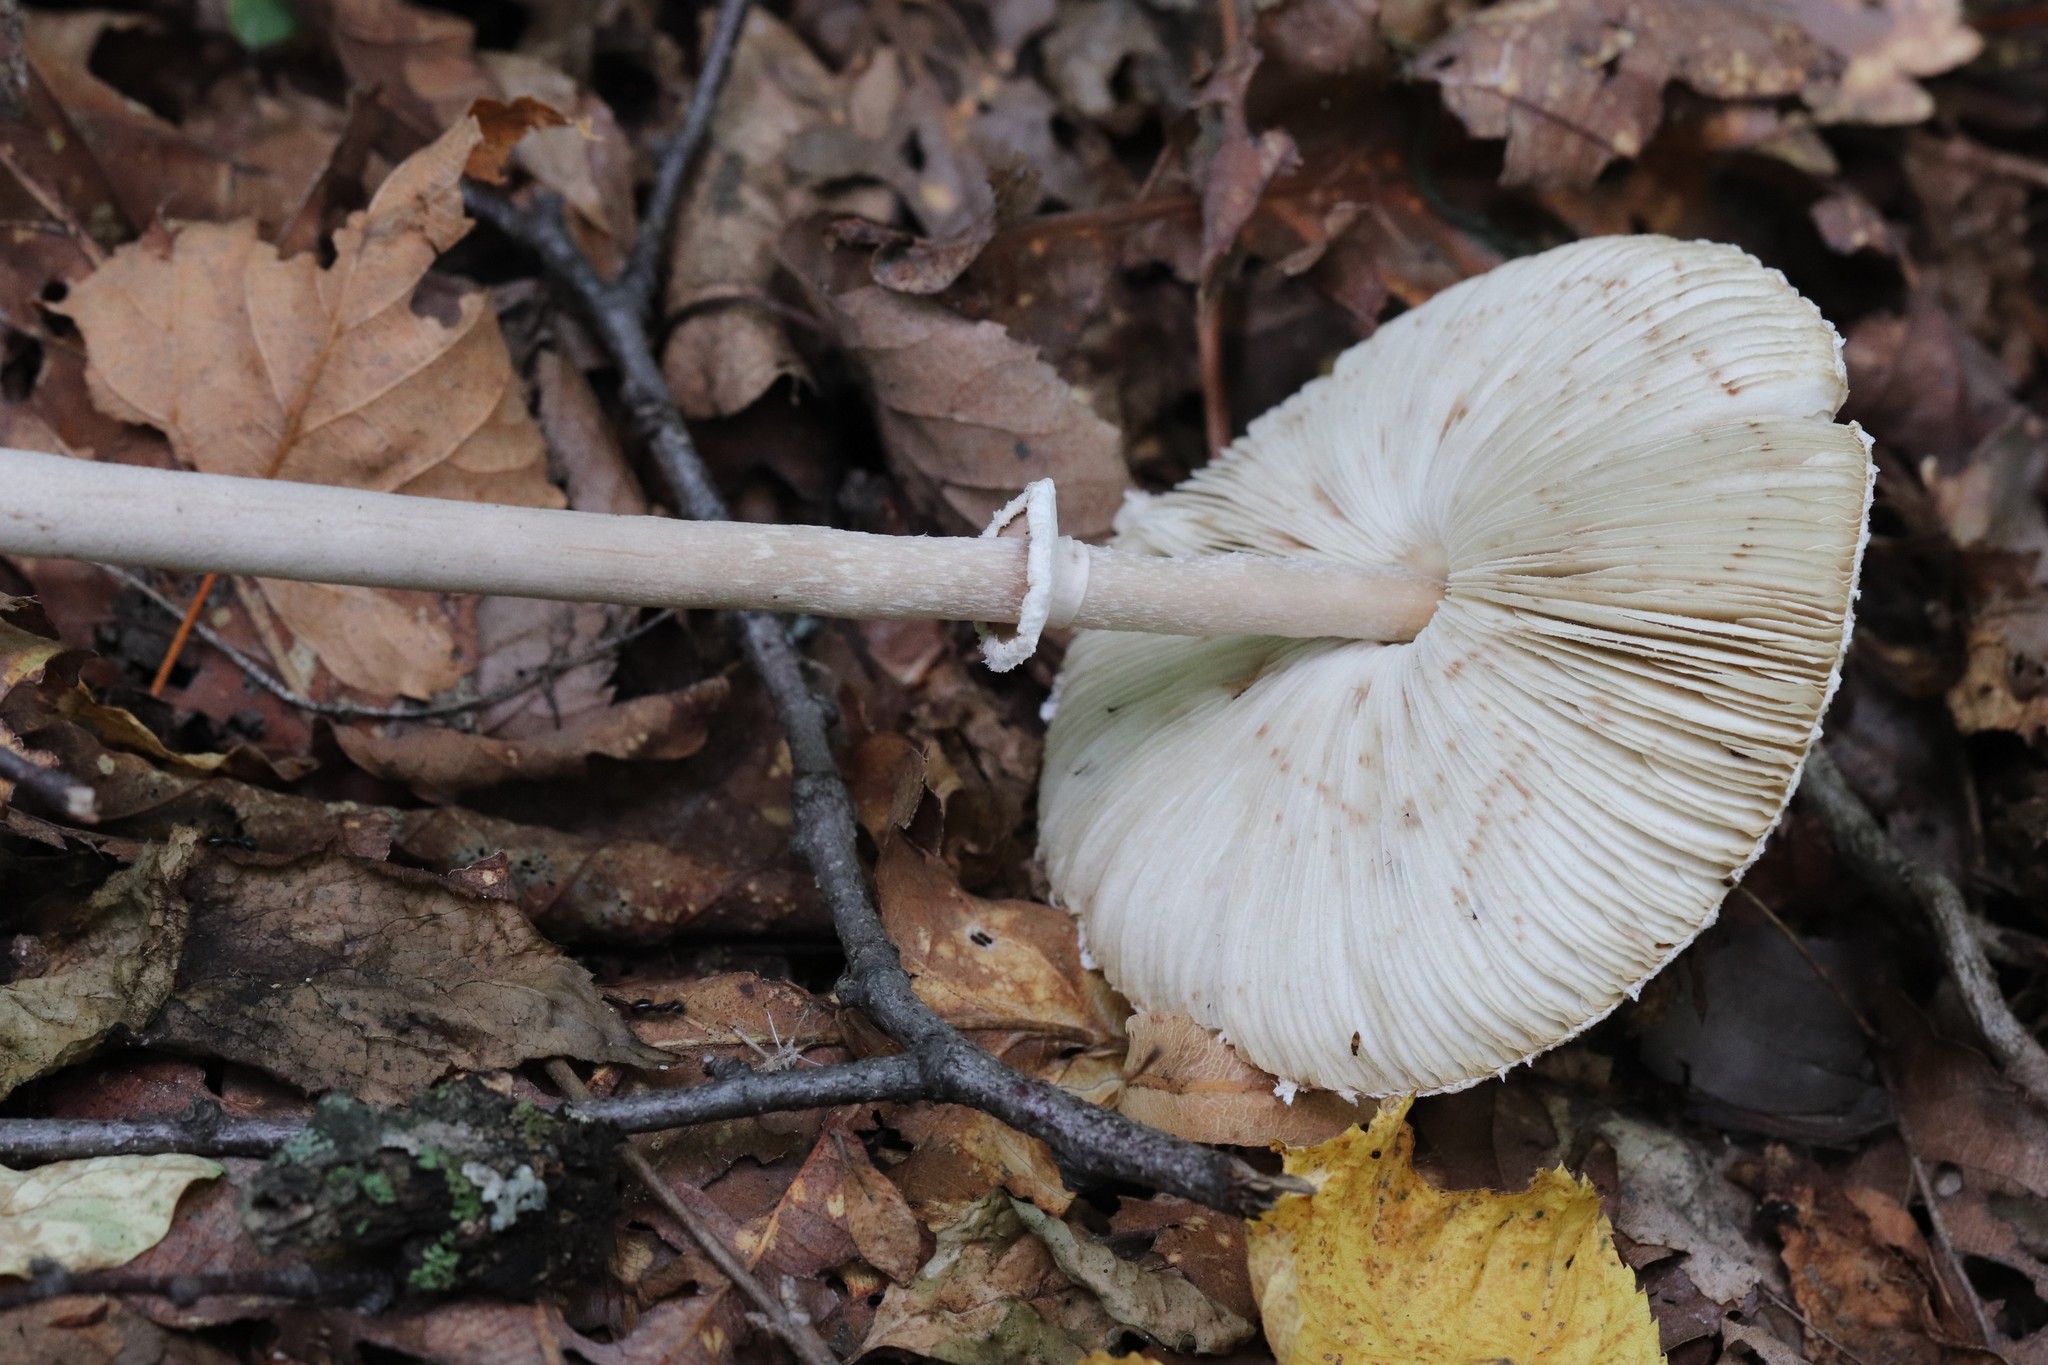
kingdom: Fungi
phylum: Basidiomycota
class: Agaricomycetes
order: Agaricales
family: Agaricaceae
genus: Macrolepiota
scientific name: Macrolepiota mastoidea
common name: Slender parasol
